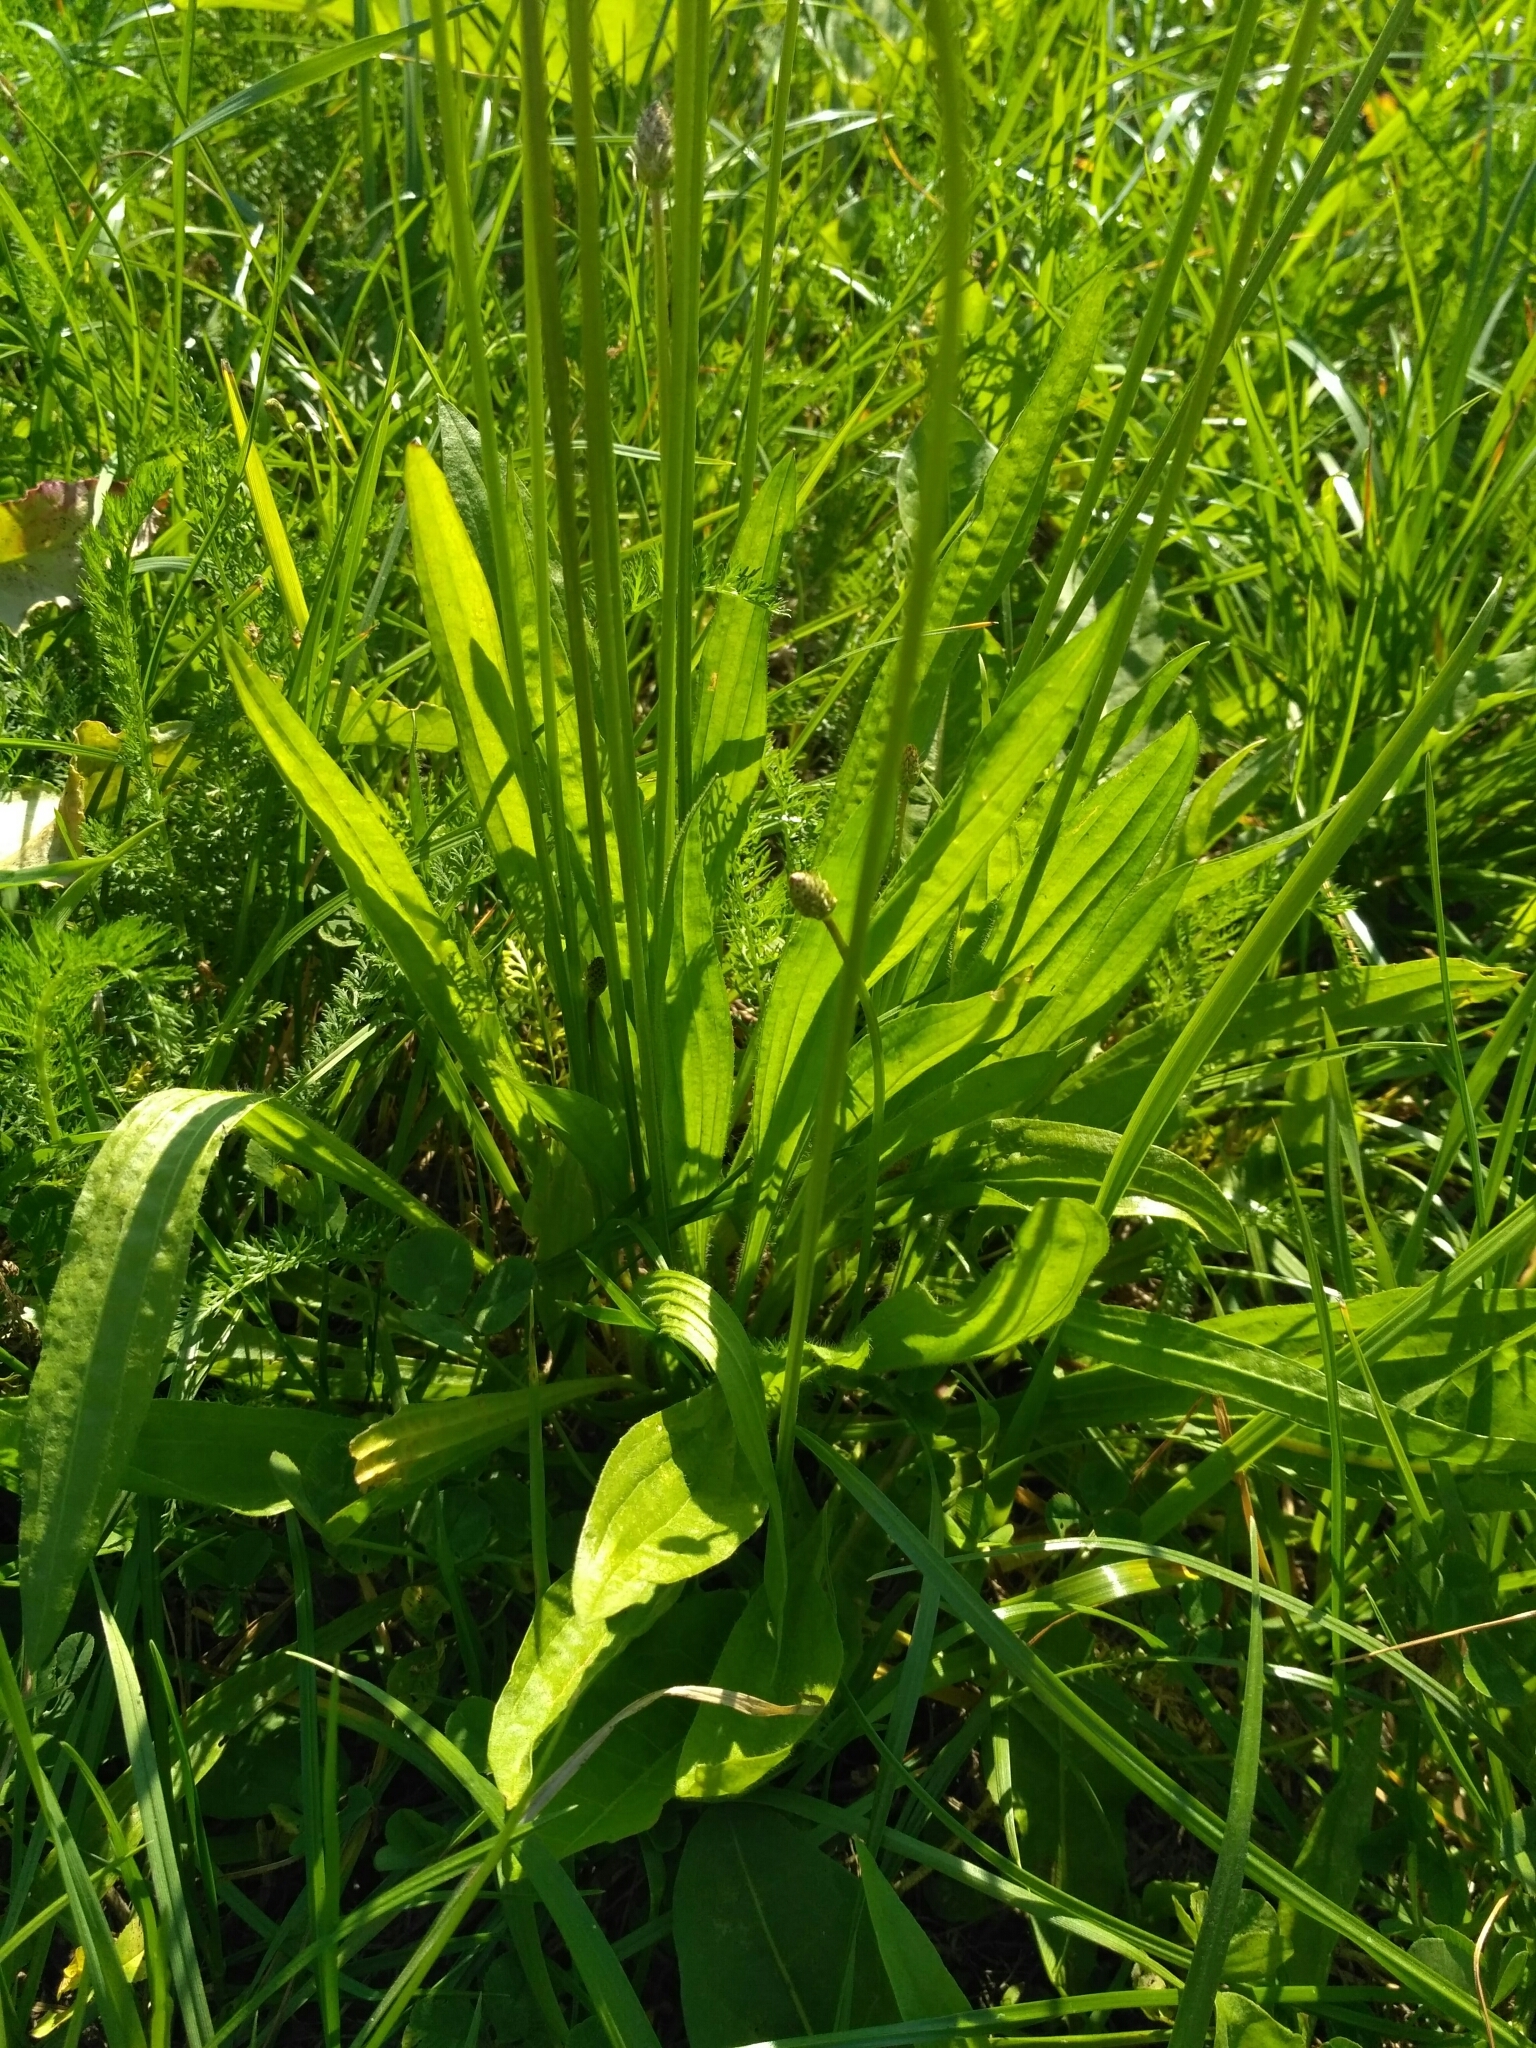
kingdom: Plantae
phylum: Tracheophyta
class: Magnoliopsida
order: Lamiales
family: Plantaginaceae
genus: Plantago
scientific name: Plantago lanceolata
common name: Ribwort plantain
